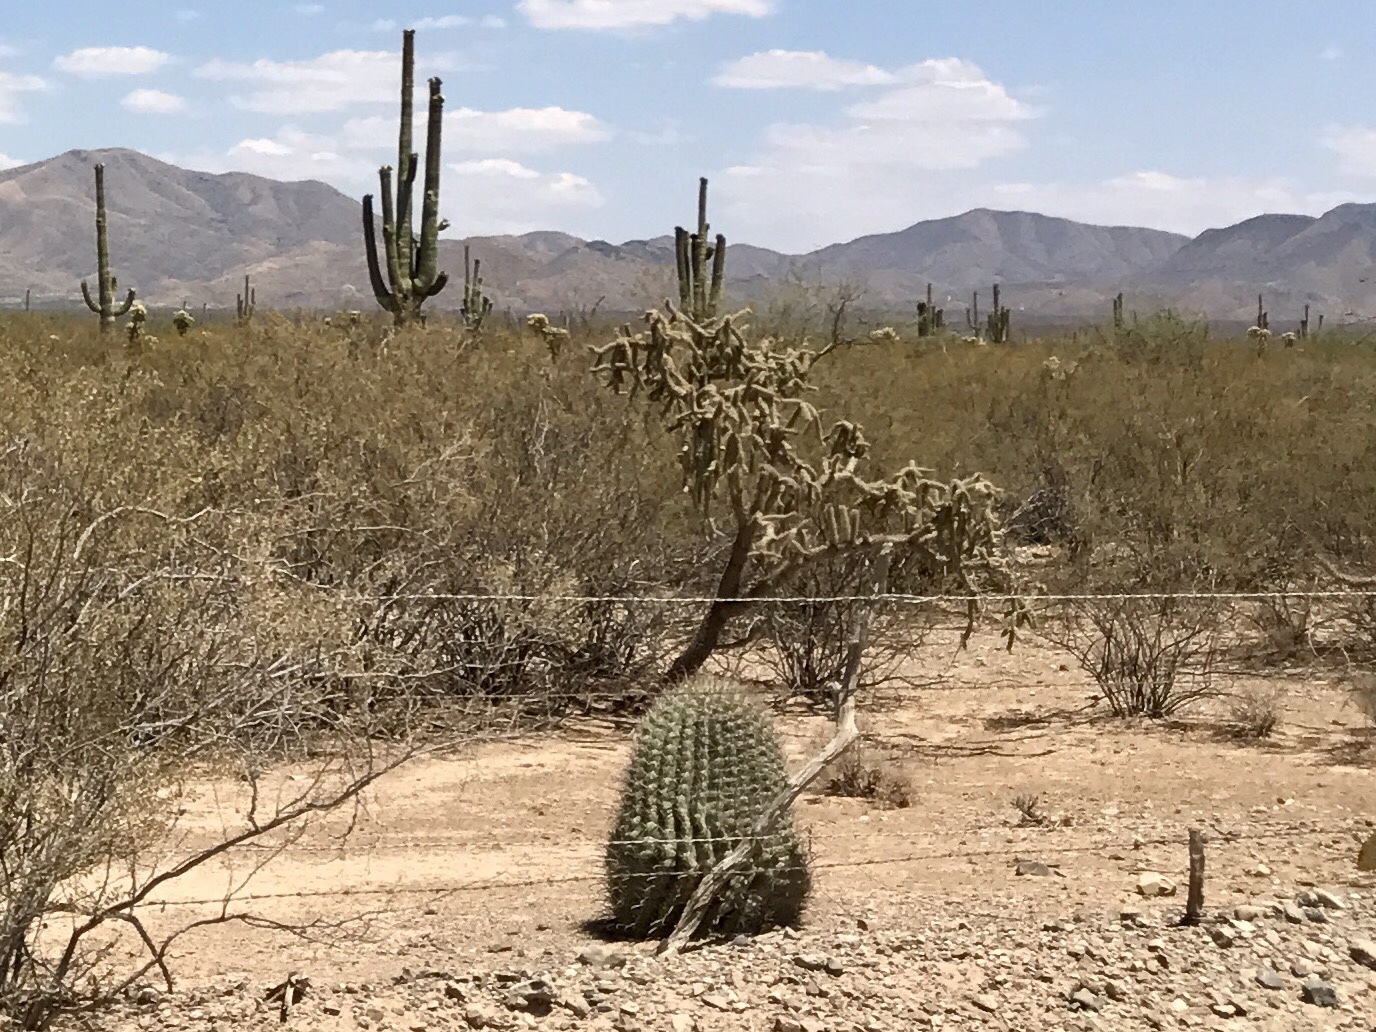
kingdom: Plantae
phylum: Tracheophyta
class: Magnoliopsida
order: Caryophyllales
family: Cactaceae
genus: Ferocactus
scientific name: Ferocactus wislizeni
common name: Candy barrel cactus
